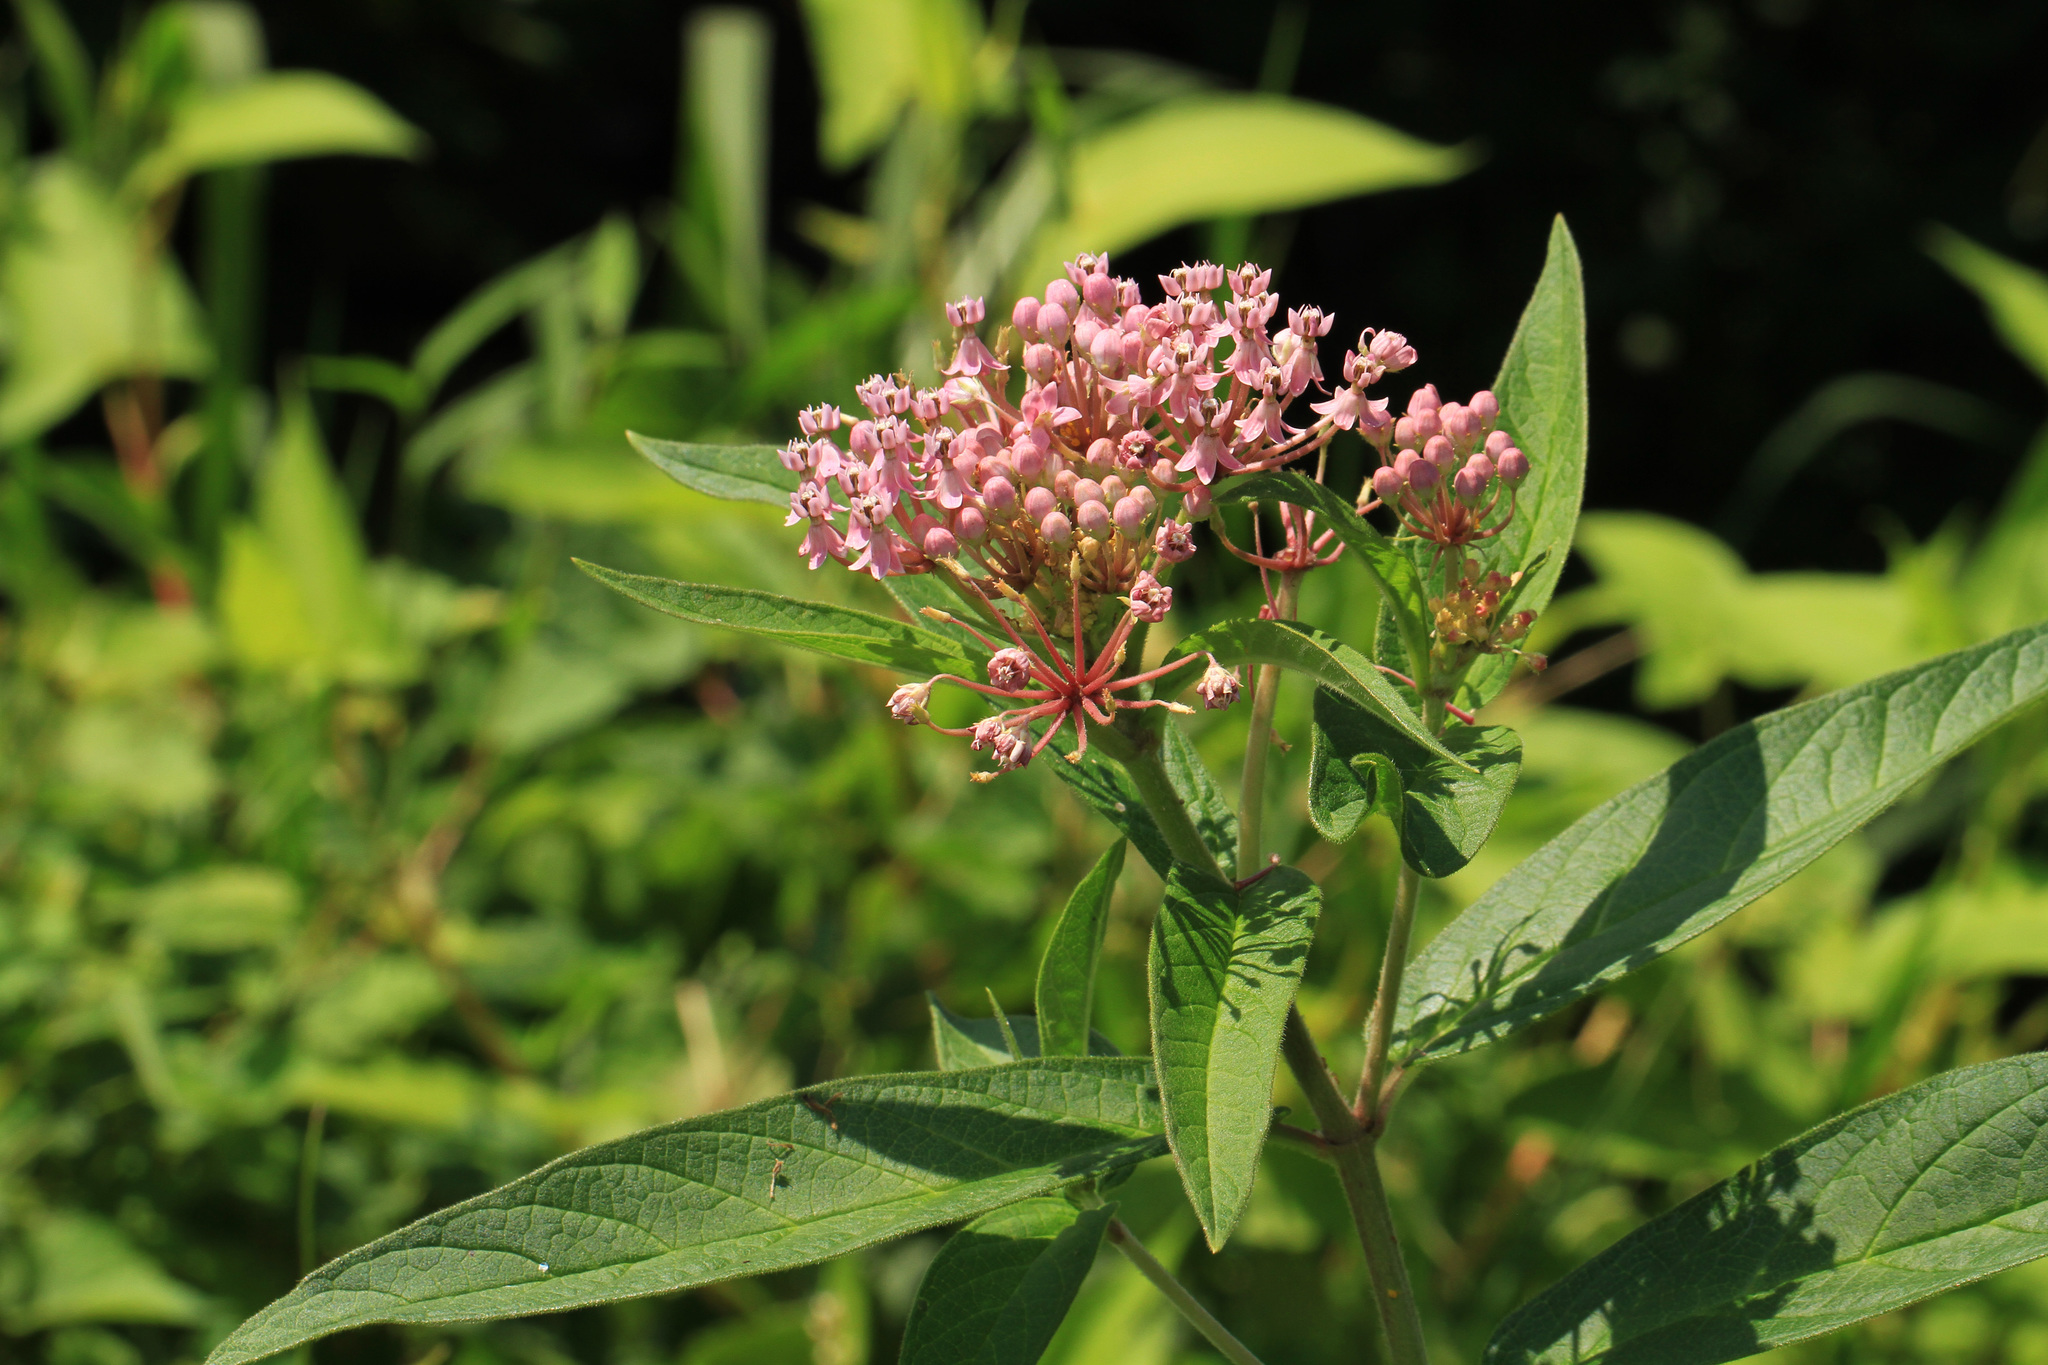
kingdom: Plantae
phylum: Tracheophyta
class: Magnoliopsida
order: Gentianales
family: Apocynaceae
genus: Asclepias
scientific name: Asclepias incarnata
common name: Swamp milkweed
